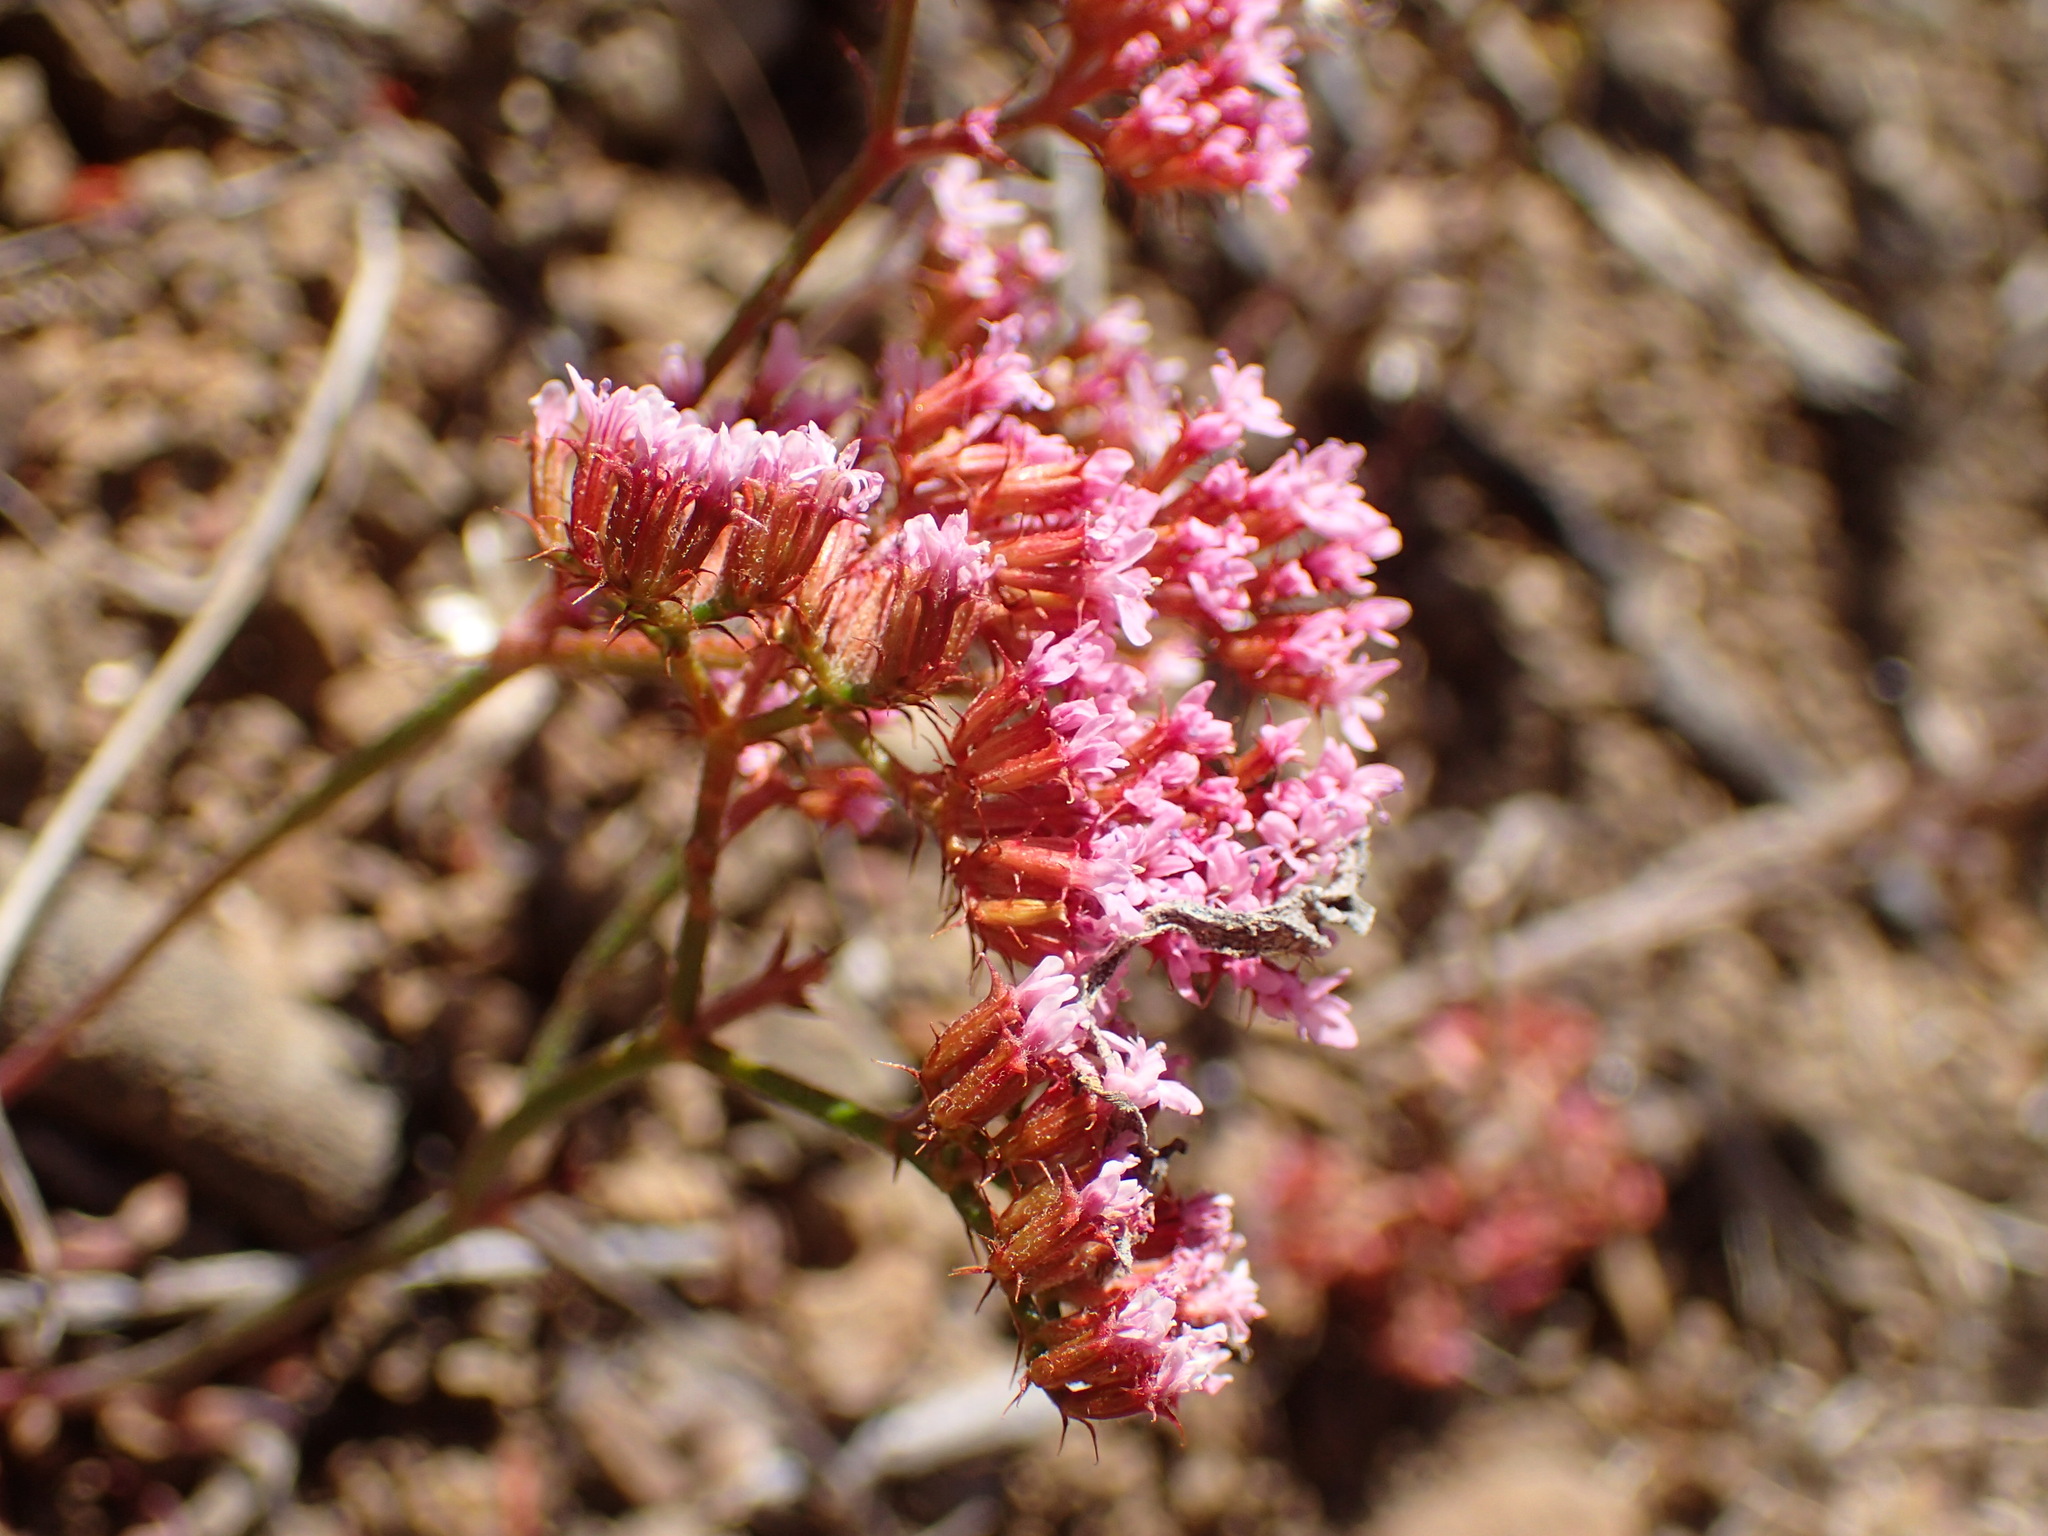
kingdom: Plantae
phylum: Tracheophyta
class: Magnoliopsida
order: Caryophyllales
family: Polygonaceae
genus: Chorizanthe
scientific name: Chorizanthe staticoides
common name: Turkish rugging
